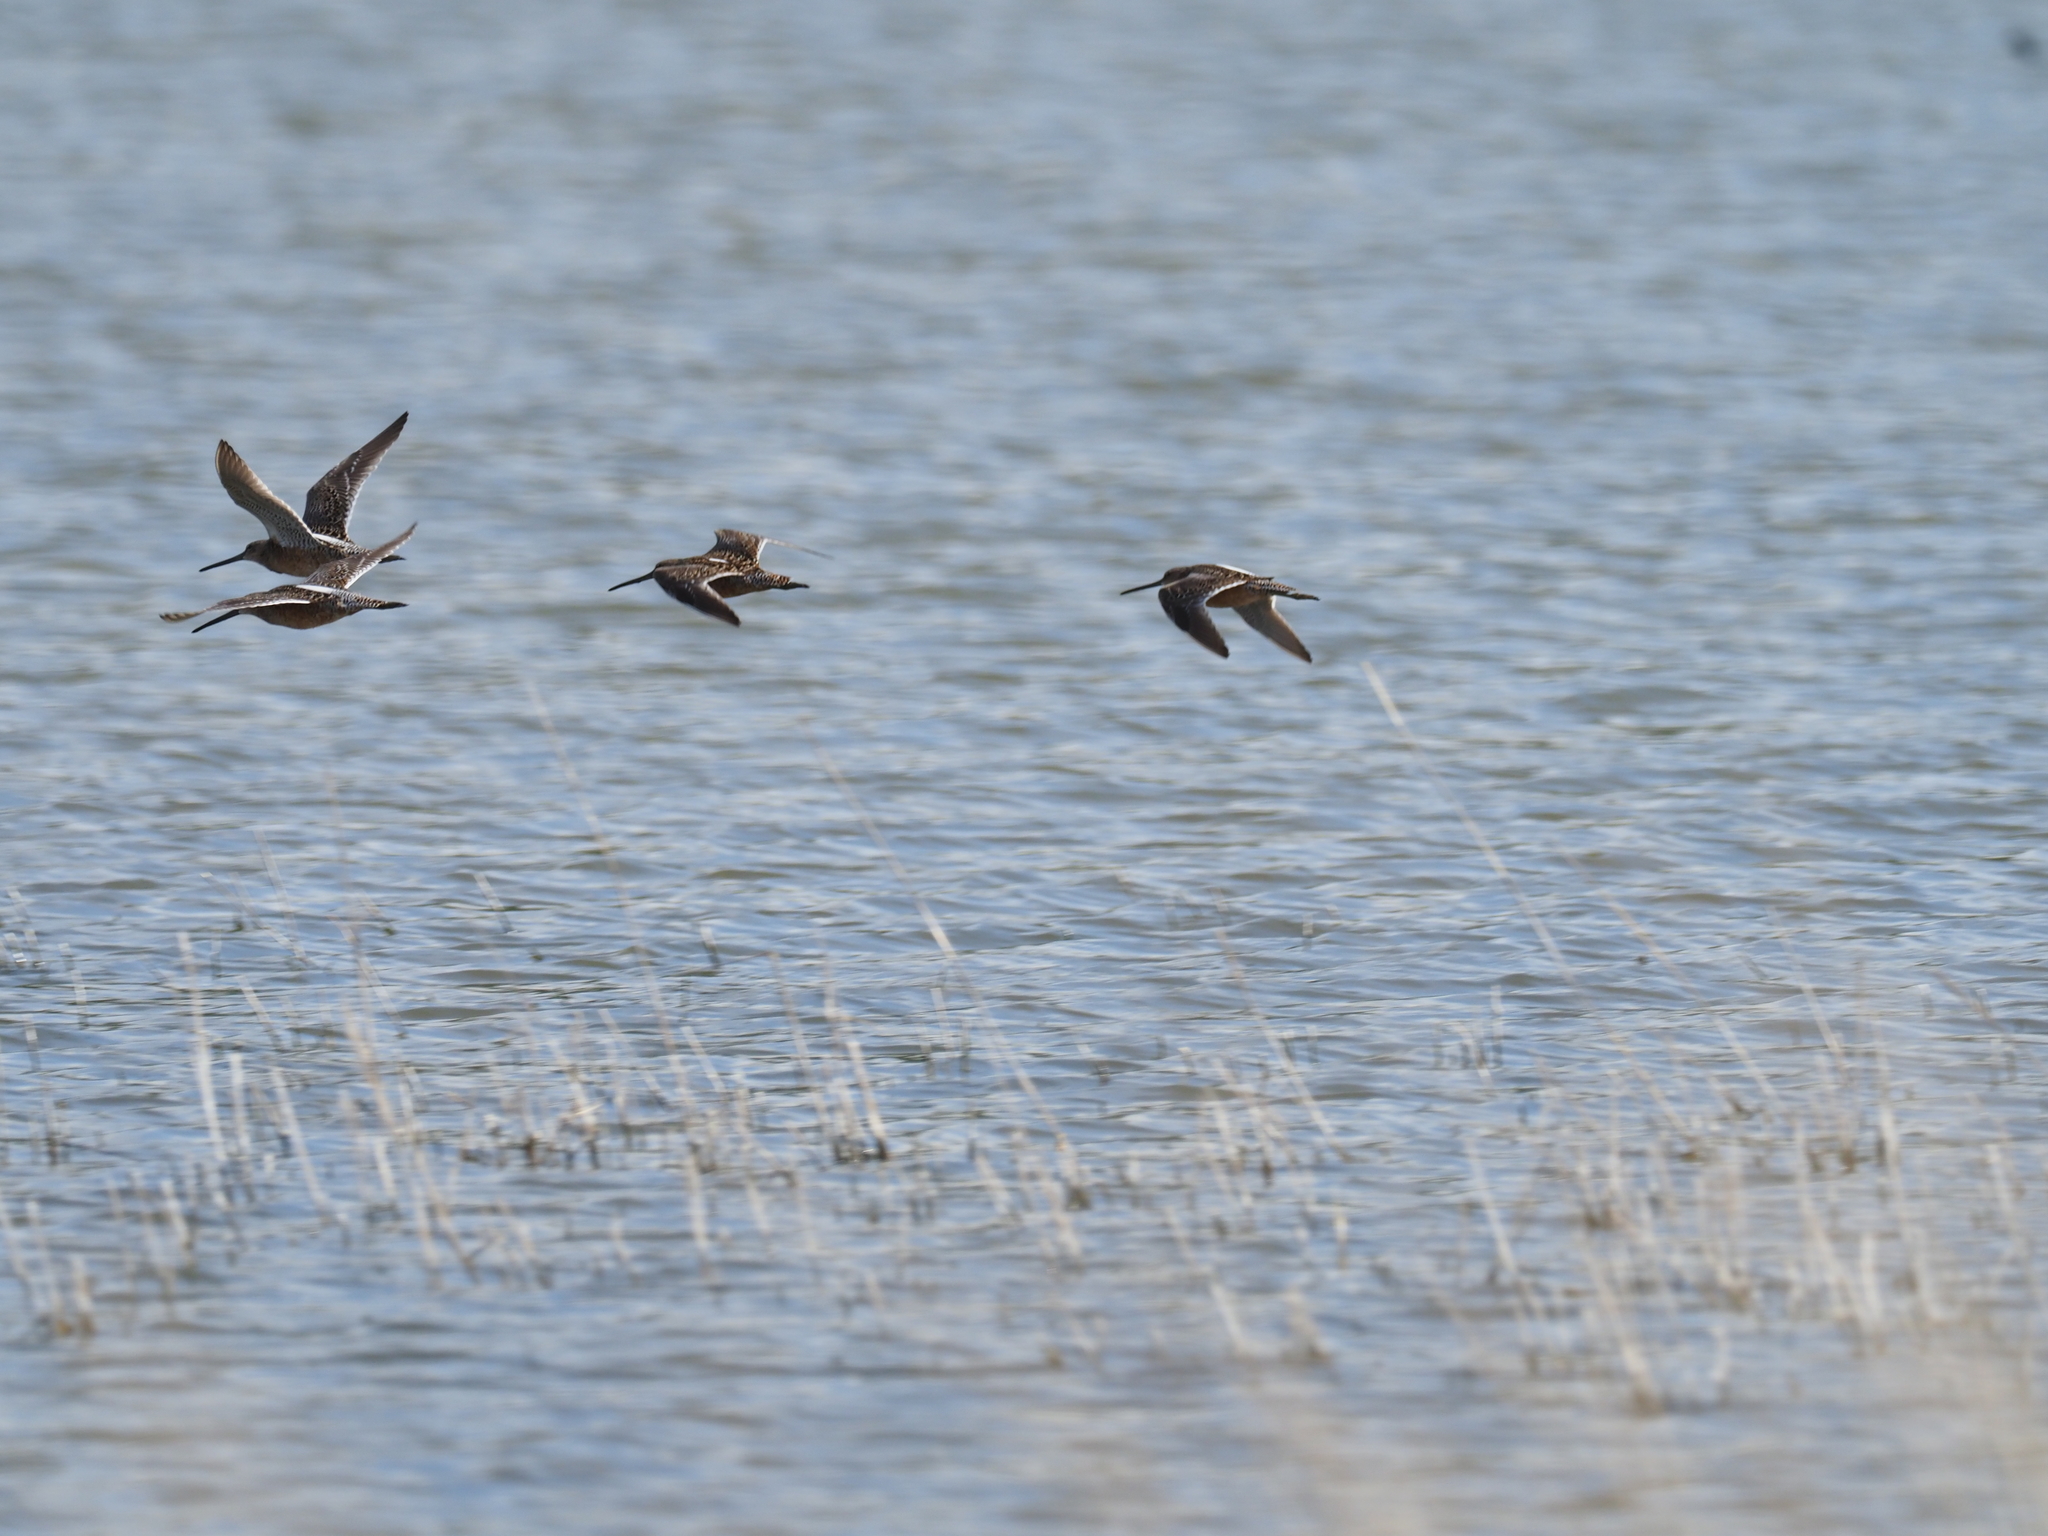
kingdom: Animalia
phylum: Chordata
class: Aves
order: Charadriiformes
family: Scolopacidae
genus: Limnodromus
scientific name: Limnodromus scolopaceus
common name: Long-billed dowitcher
